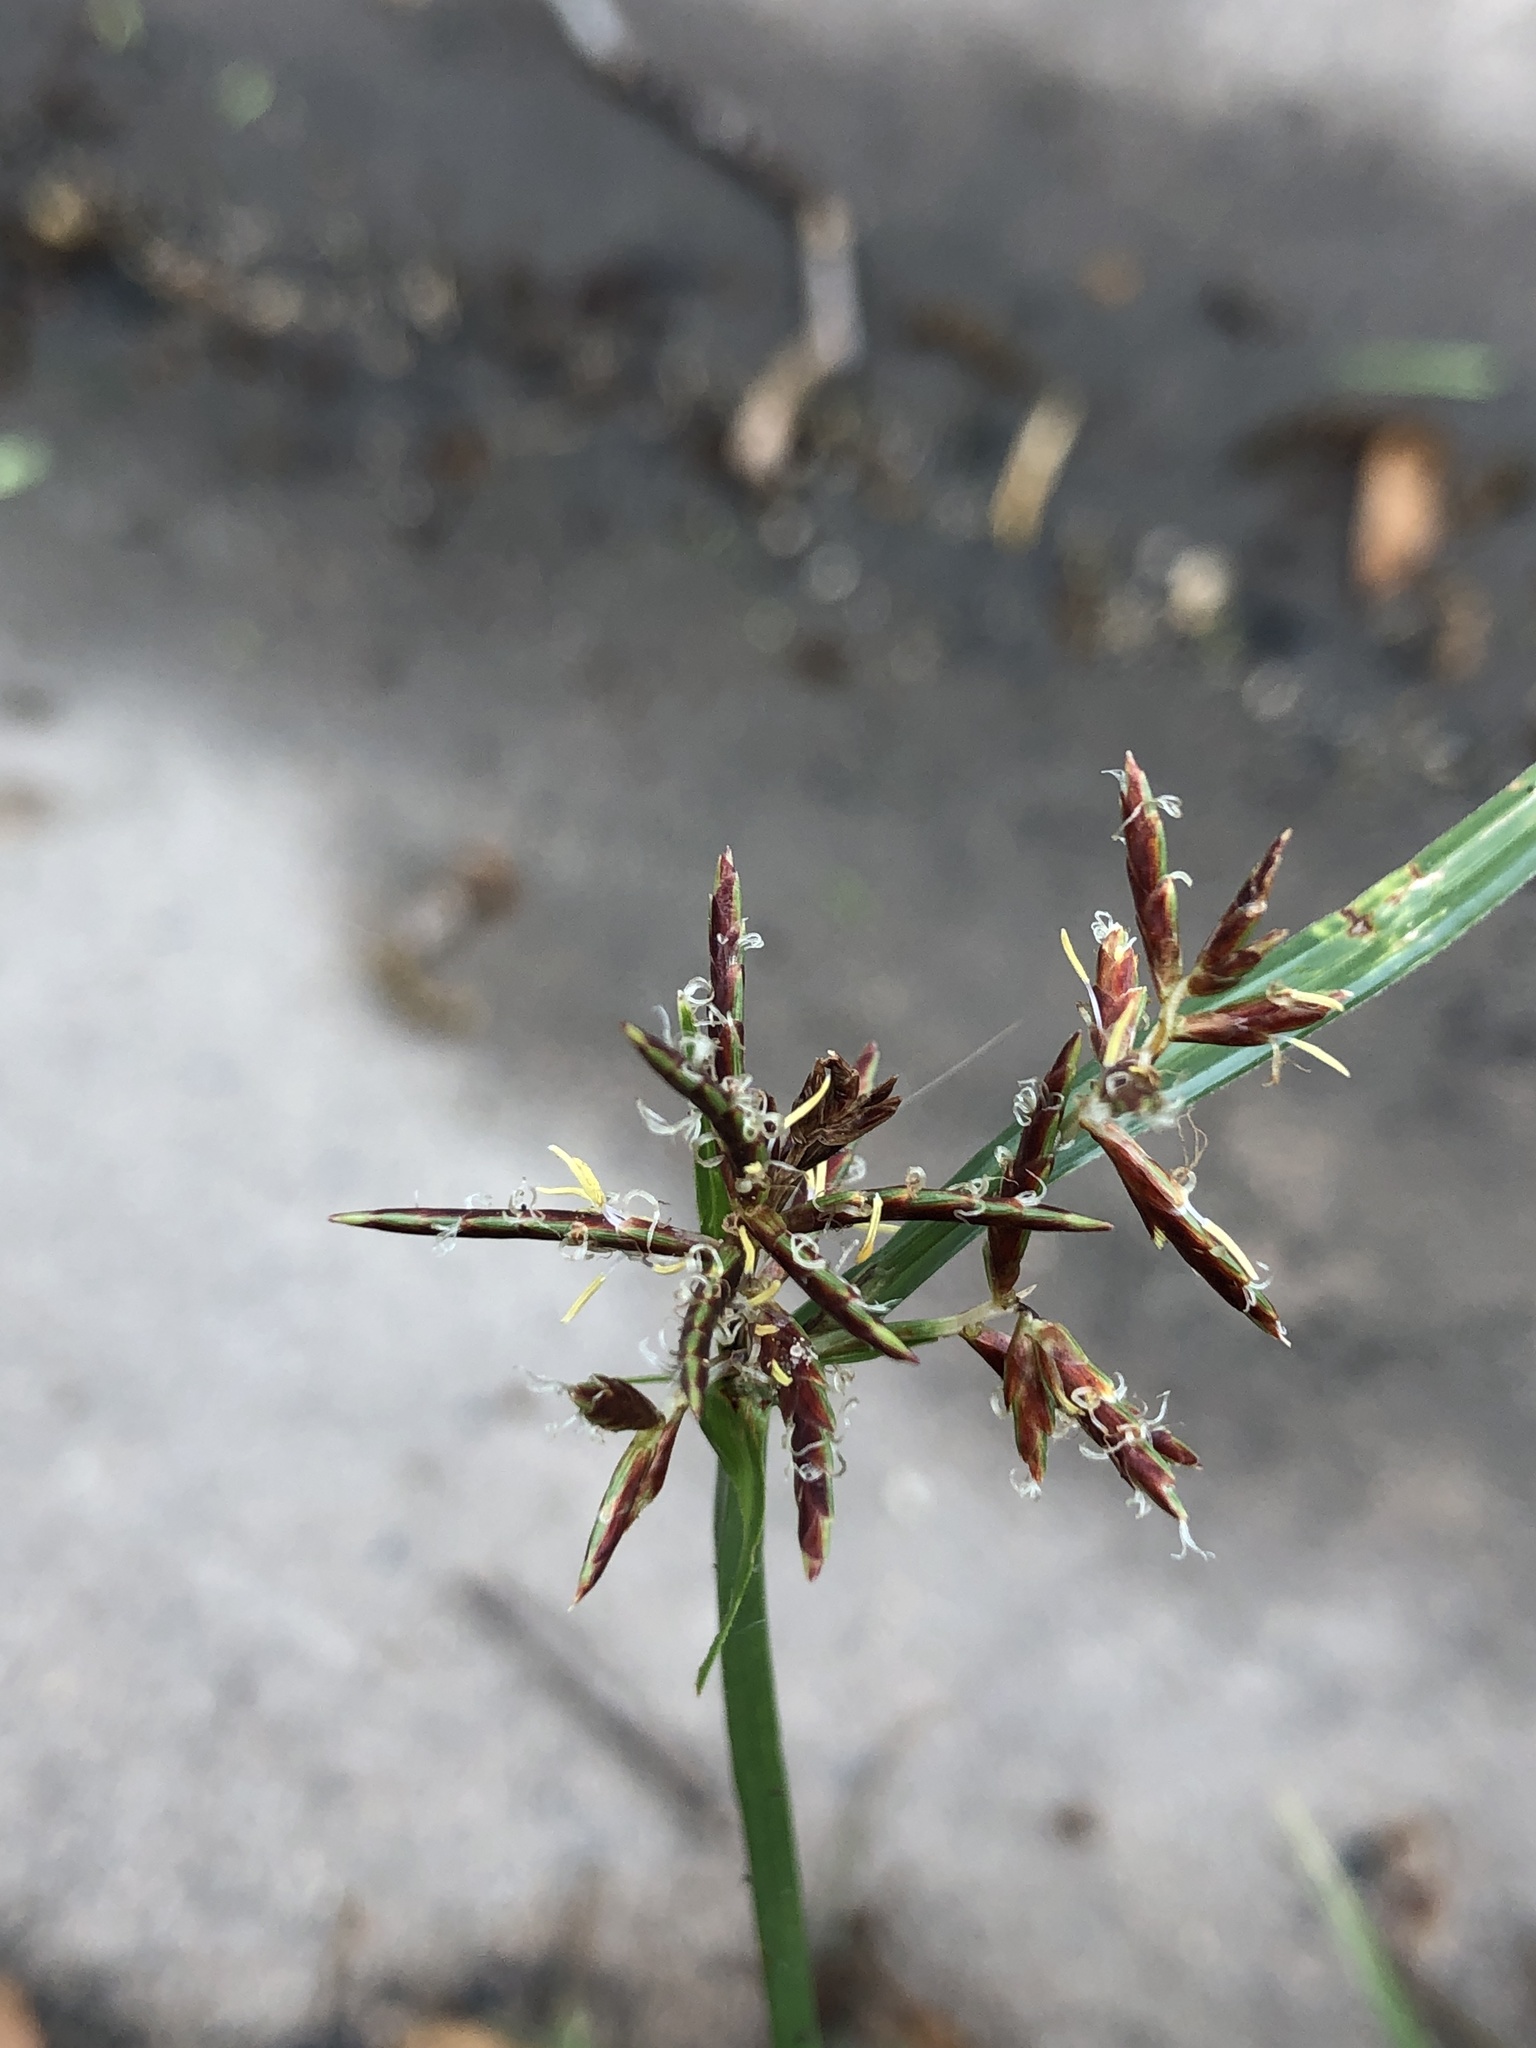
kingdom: Plantae
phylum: Tracheophyta
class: Liliopsida
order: Poales
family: Cyperaceae
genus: Cyperus
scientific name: Cyperus rotundus
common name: Nutgrass
